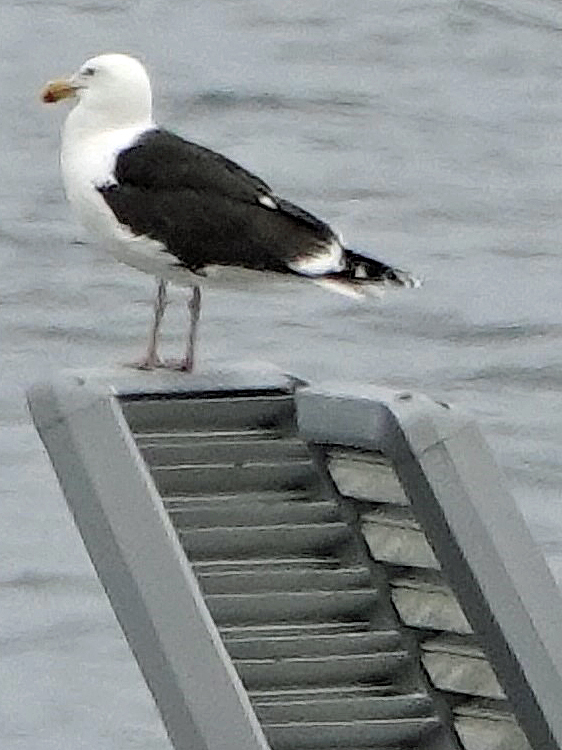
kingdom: Animalia
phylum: Chordata
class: Aves
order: Charadriiformes
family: Laridae
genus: Larus
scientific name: Larus marinus
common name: Great black-backed gull
